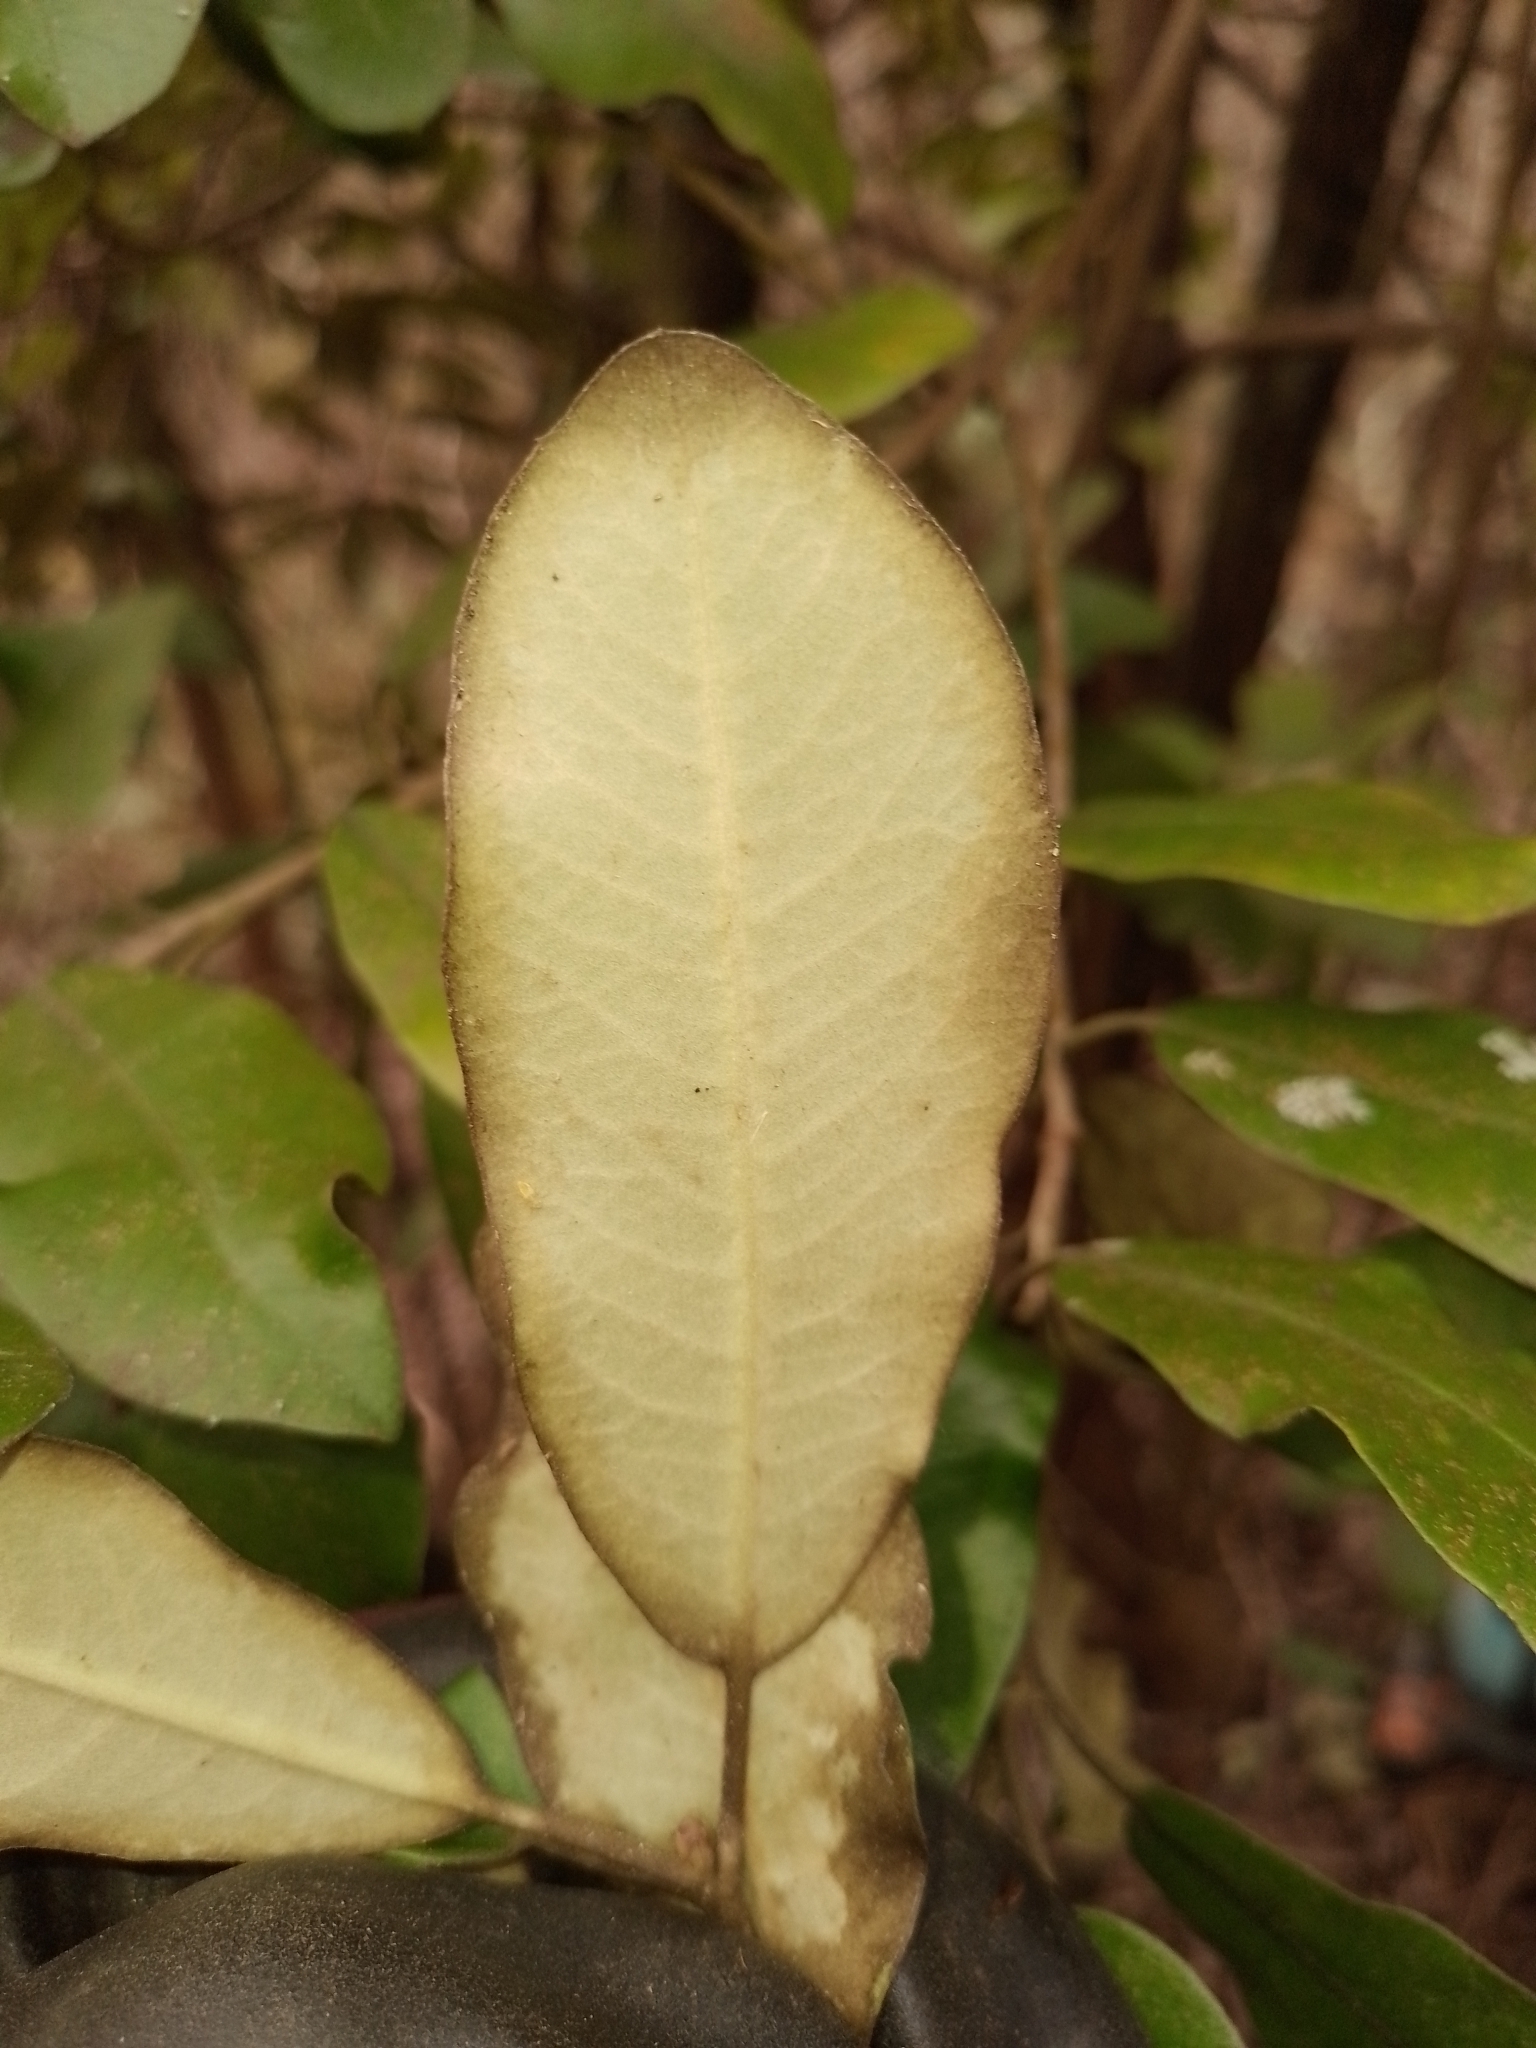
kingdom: Plantae
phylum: Tracheophyta
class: Magnoliopsida
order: Apiales
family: Pittosporaceae
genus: Pittosporum
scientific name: Pittosporum ralphii
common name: Ralph's desertwillow
